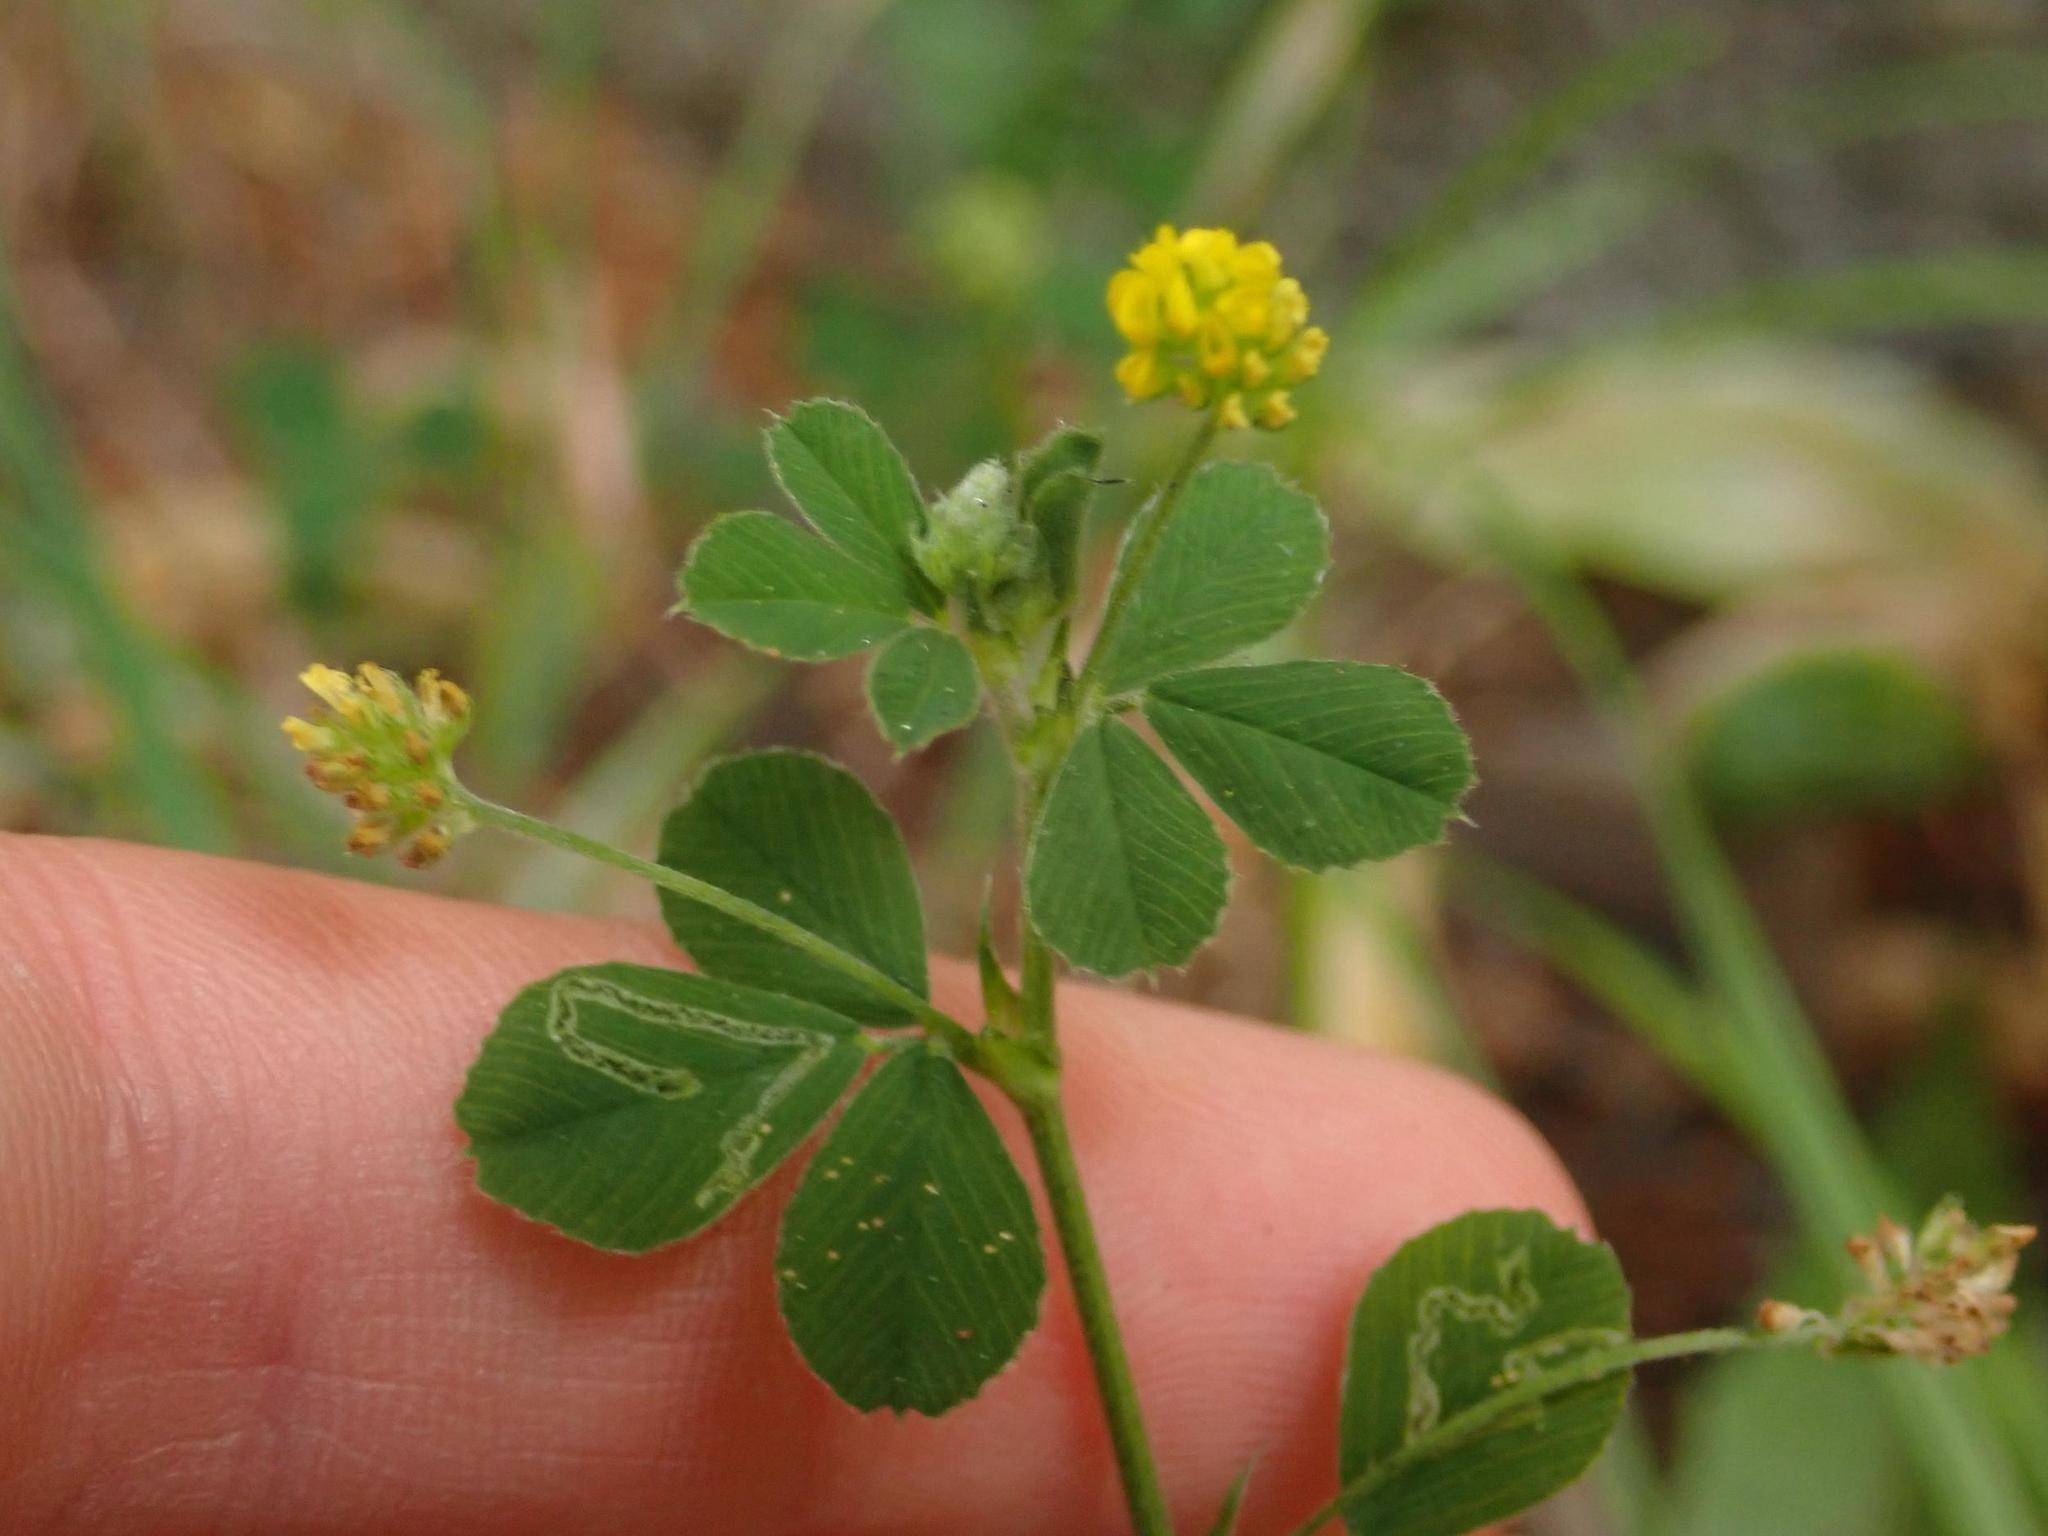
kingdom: Plantae
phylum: Tracheophyta
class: Magnoliopsida
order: Fabales
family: Fabaceae
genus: Medicago
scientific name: Medicago lupulina
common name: Black medick
